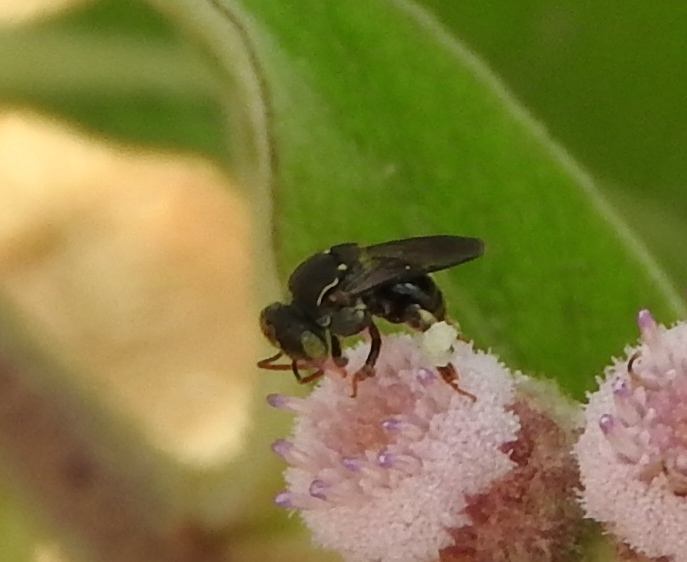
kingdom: Animalia
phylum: Arthropoda
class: Insecta
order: Hymenoptera
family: Apidae
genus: Nannotrigona
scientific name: Nannotrigona perilampoides
